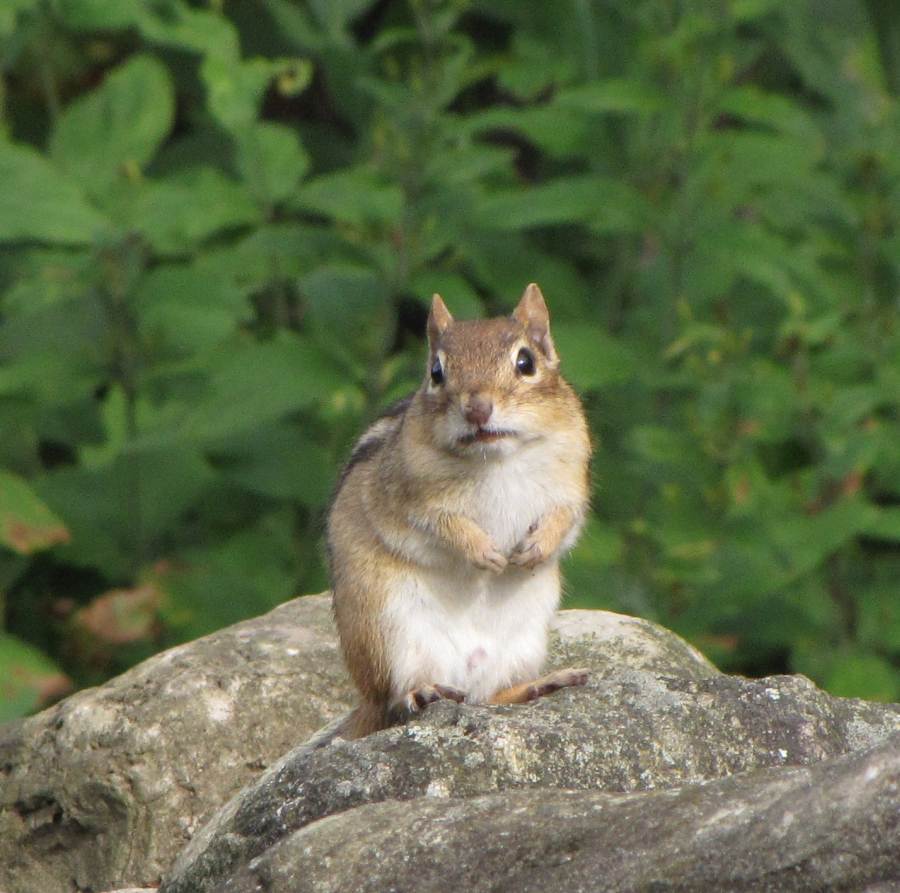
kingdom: Animalia
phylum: Chordata
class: Mammalia
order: Rodentia
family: Sciuridae
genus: Tamias
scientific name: Tamias striatus
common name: Eastern chipmunk
